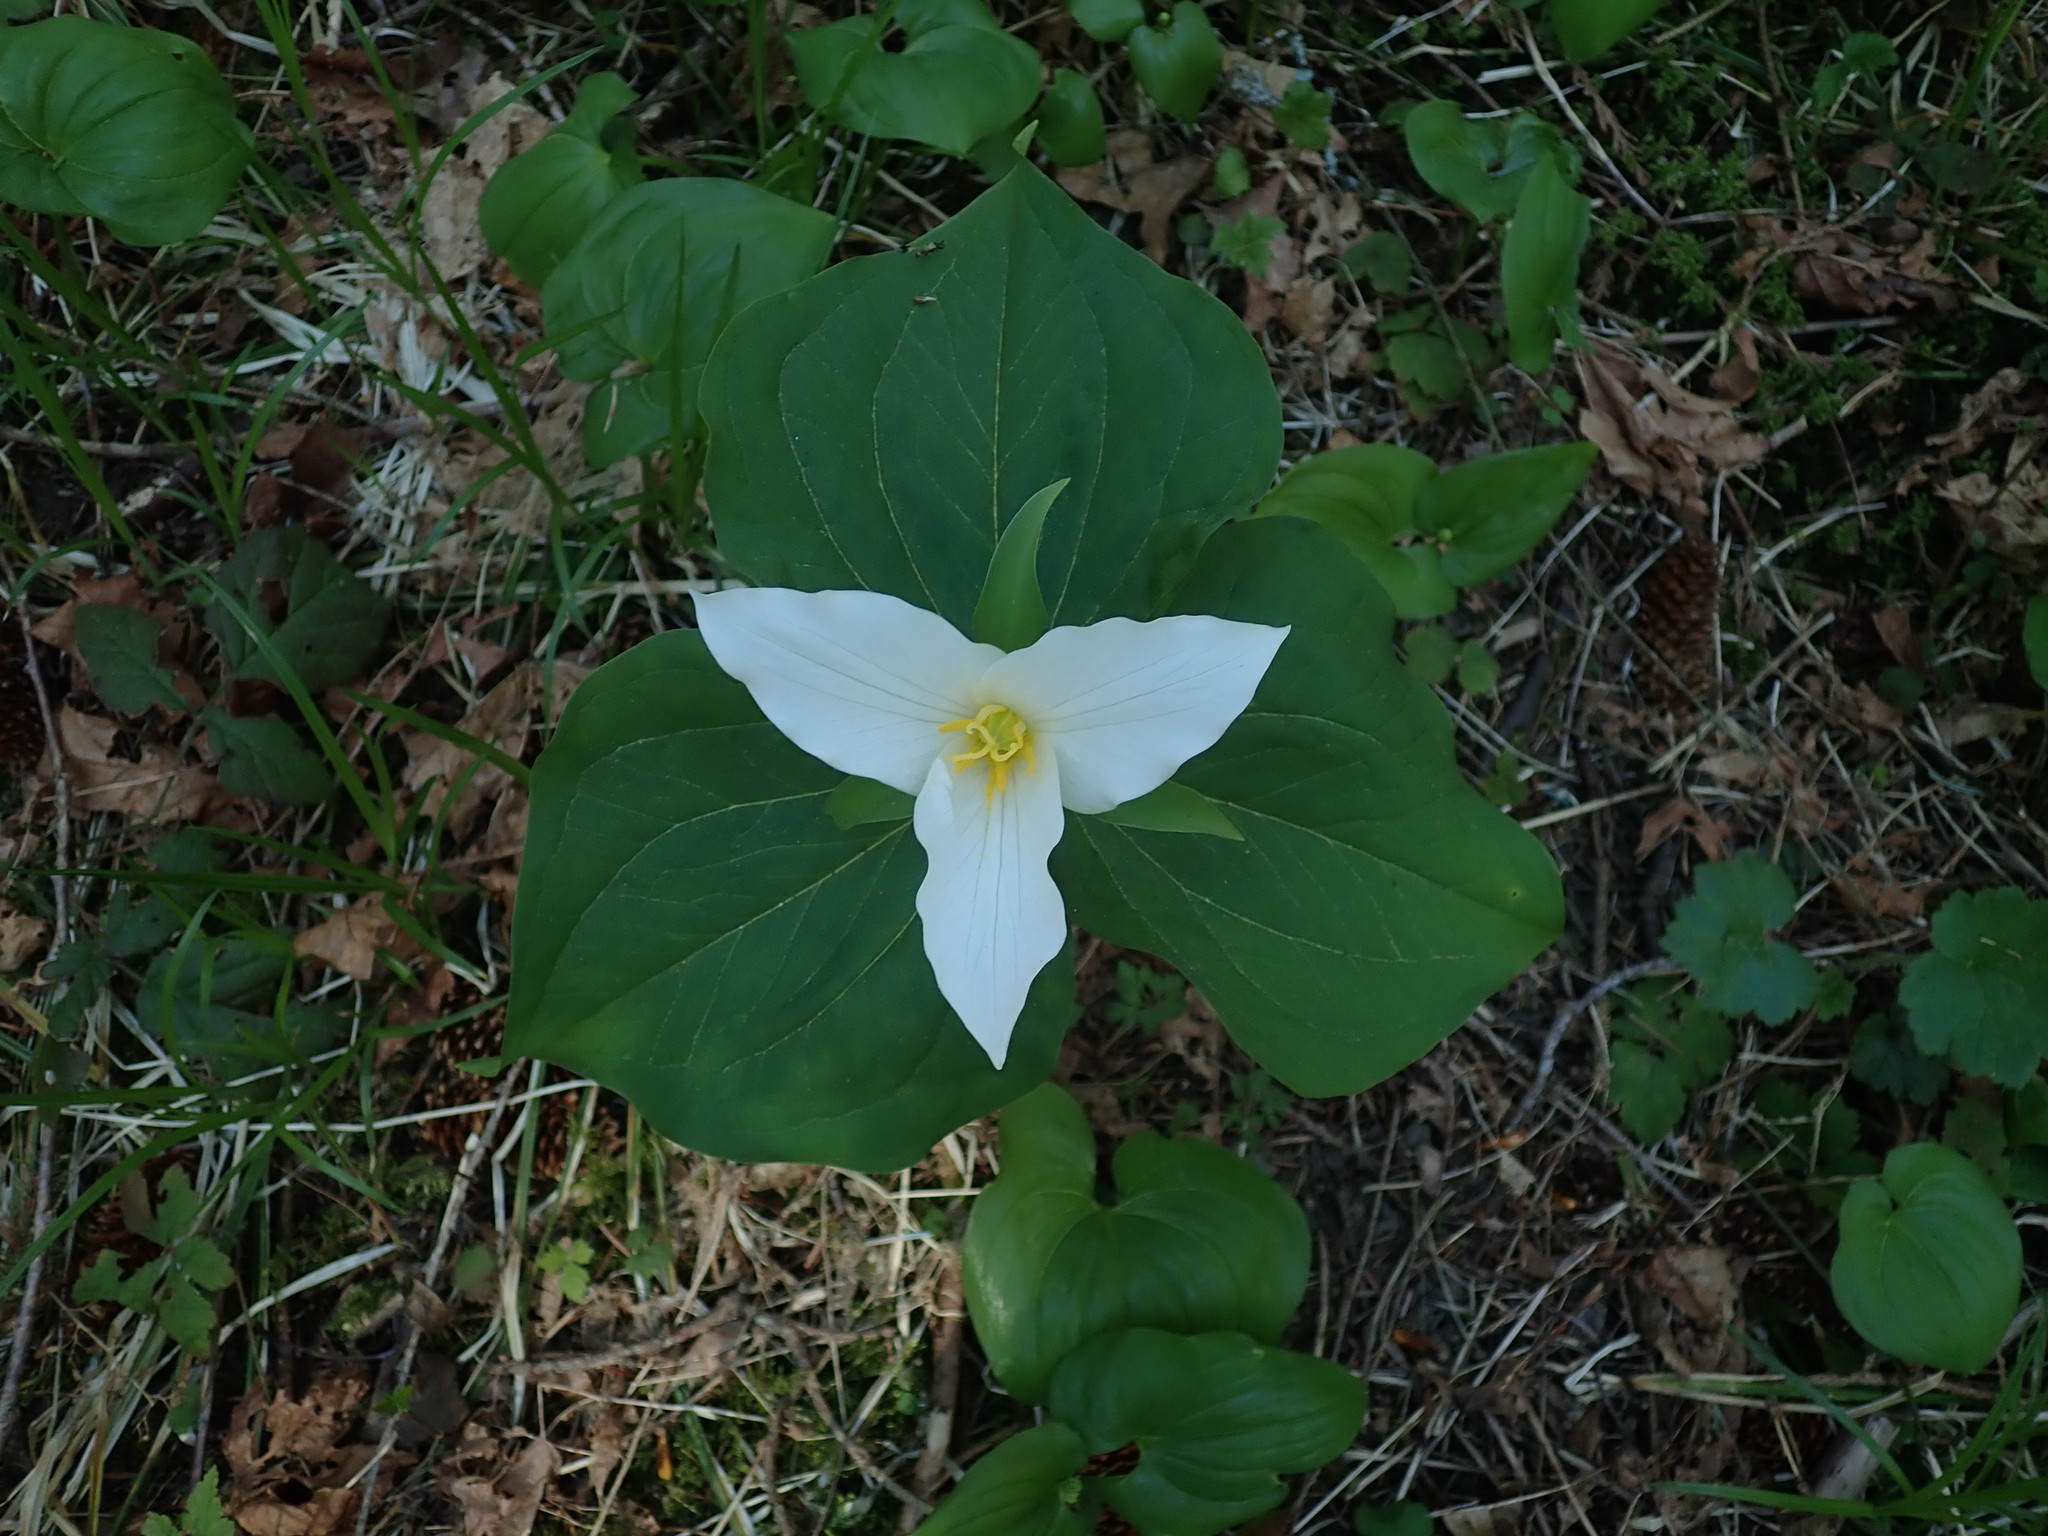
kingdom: Plantae
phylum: Tracheophyta
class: Liliopsida
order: Liliales
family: Melanthiaceae
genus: Trillium
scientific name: Trillium ovatum
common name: Pacific trillium
